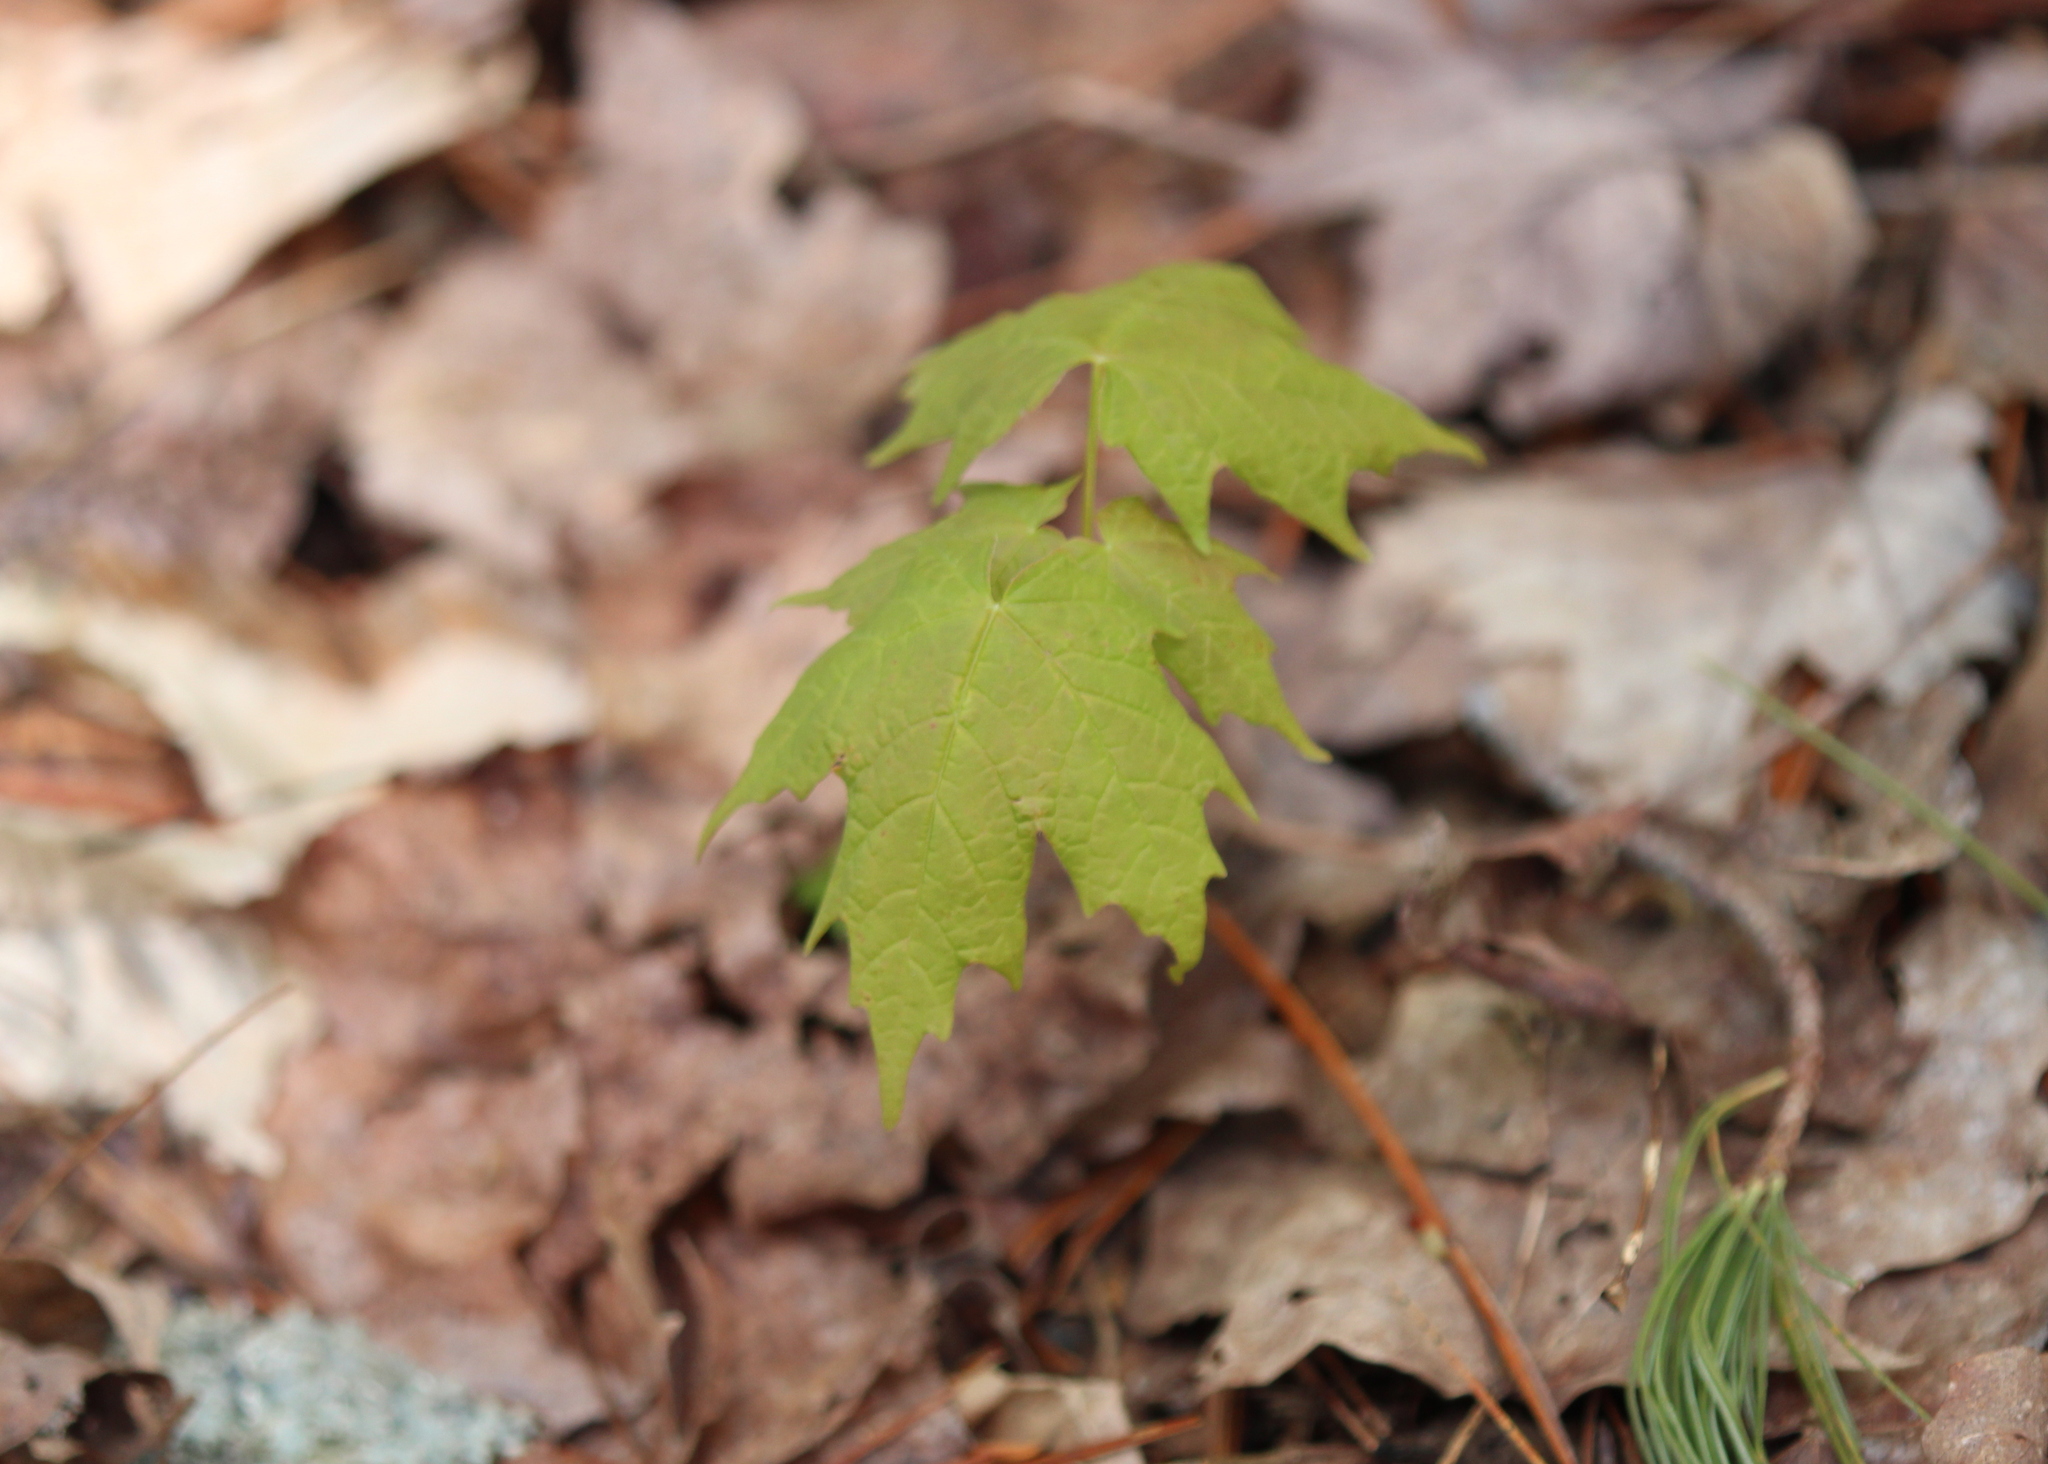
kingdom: Plantae
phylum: Tracheophyta
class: Magnoliopsida
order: Sapindales
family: Sapindaceae
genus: Acer
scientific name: Acer saccharum
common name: Sugar maple
